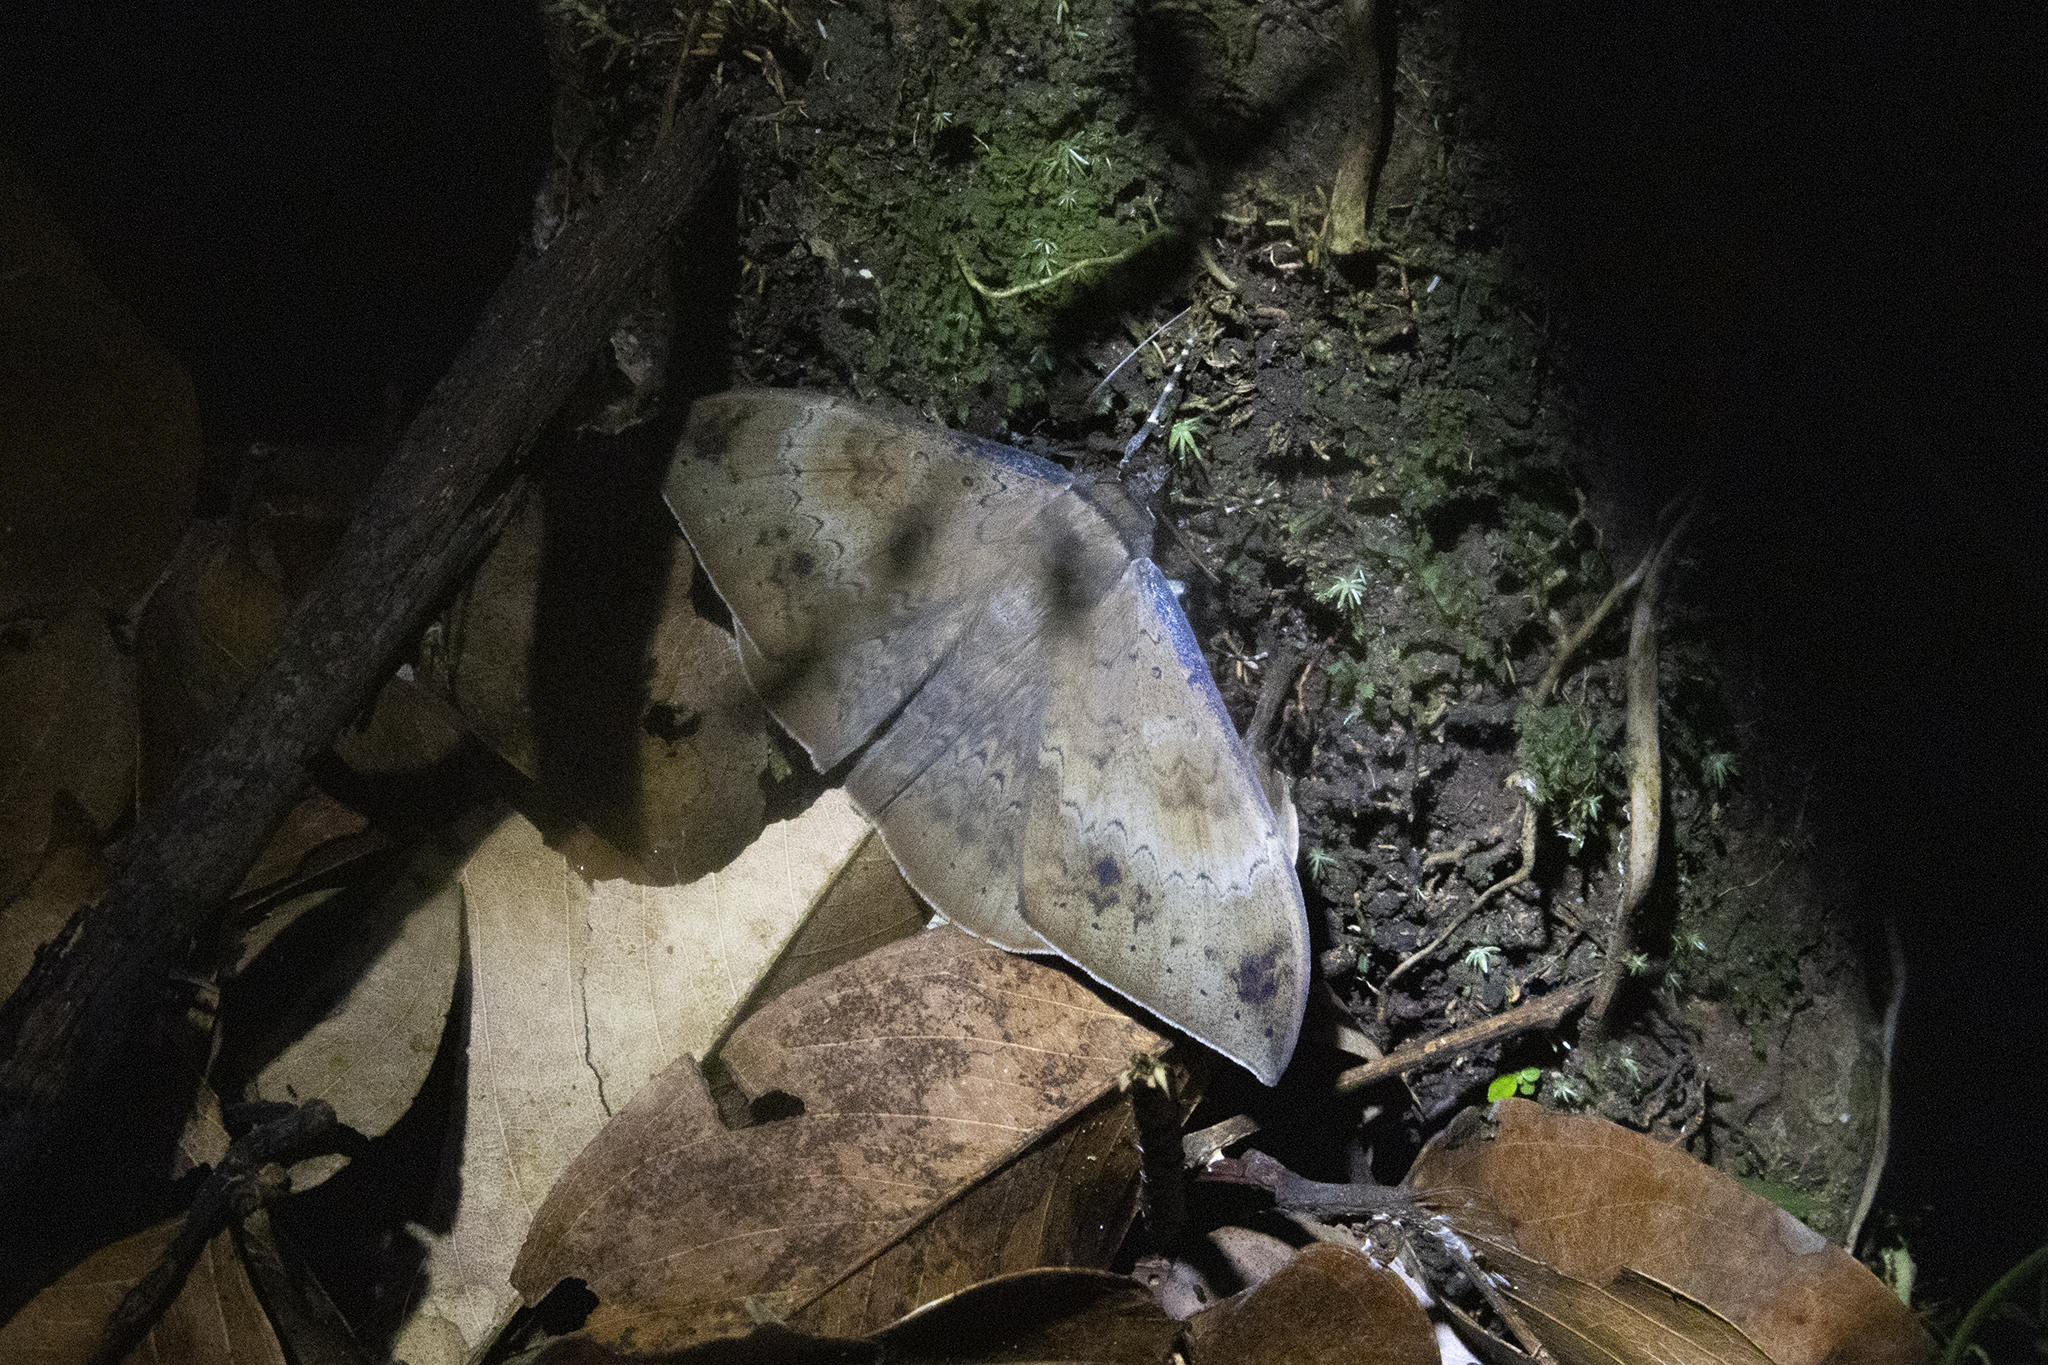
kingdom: Animalia
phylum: Arthropoda
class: Insecta
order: Lepidoptera
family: Erebidae
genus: Hemeroblemma
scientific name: Hemeroblemma opigena
